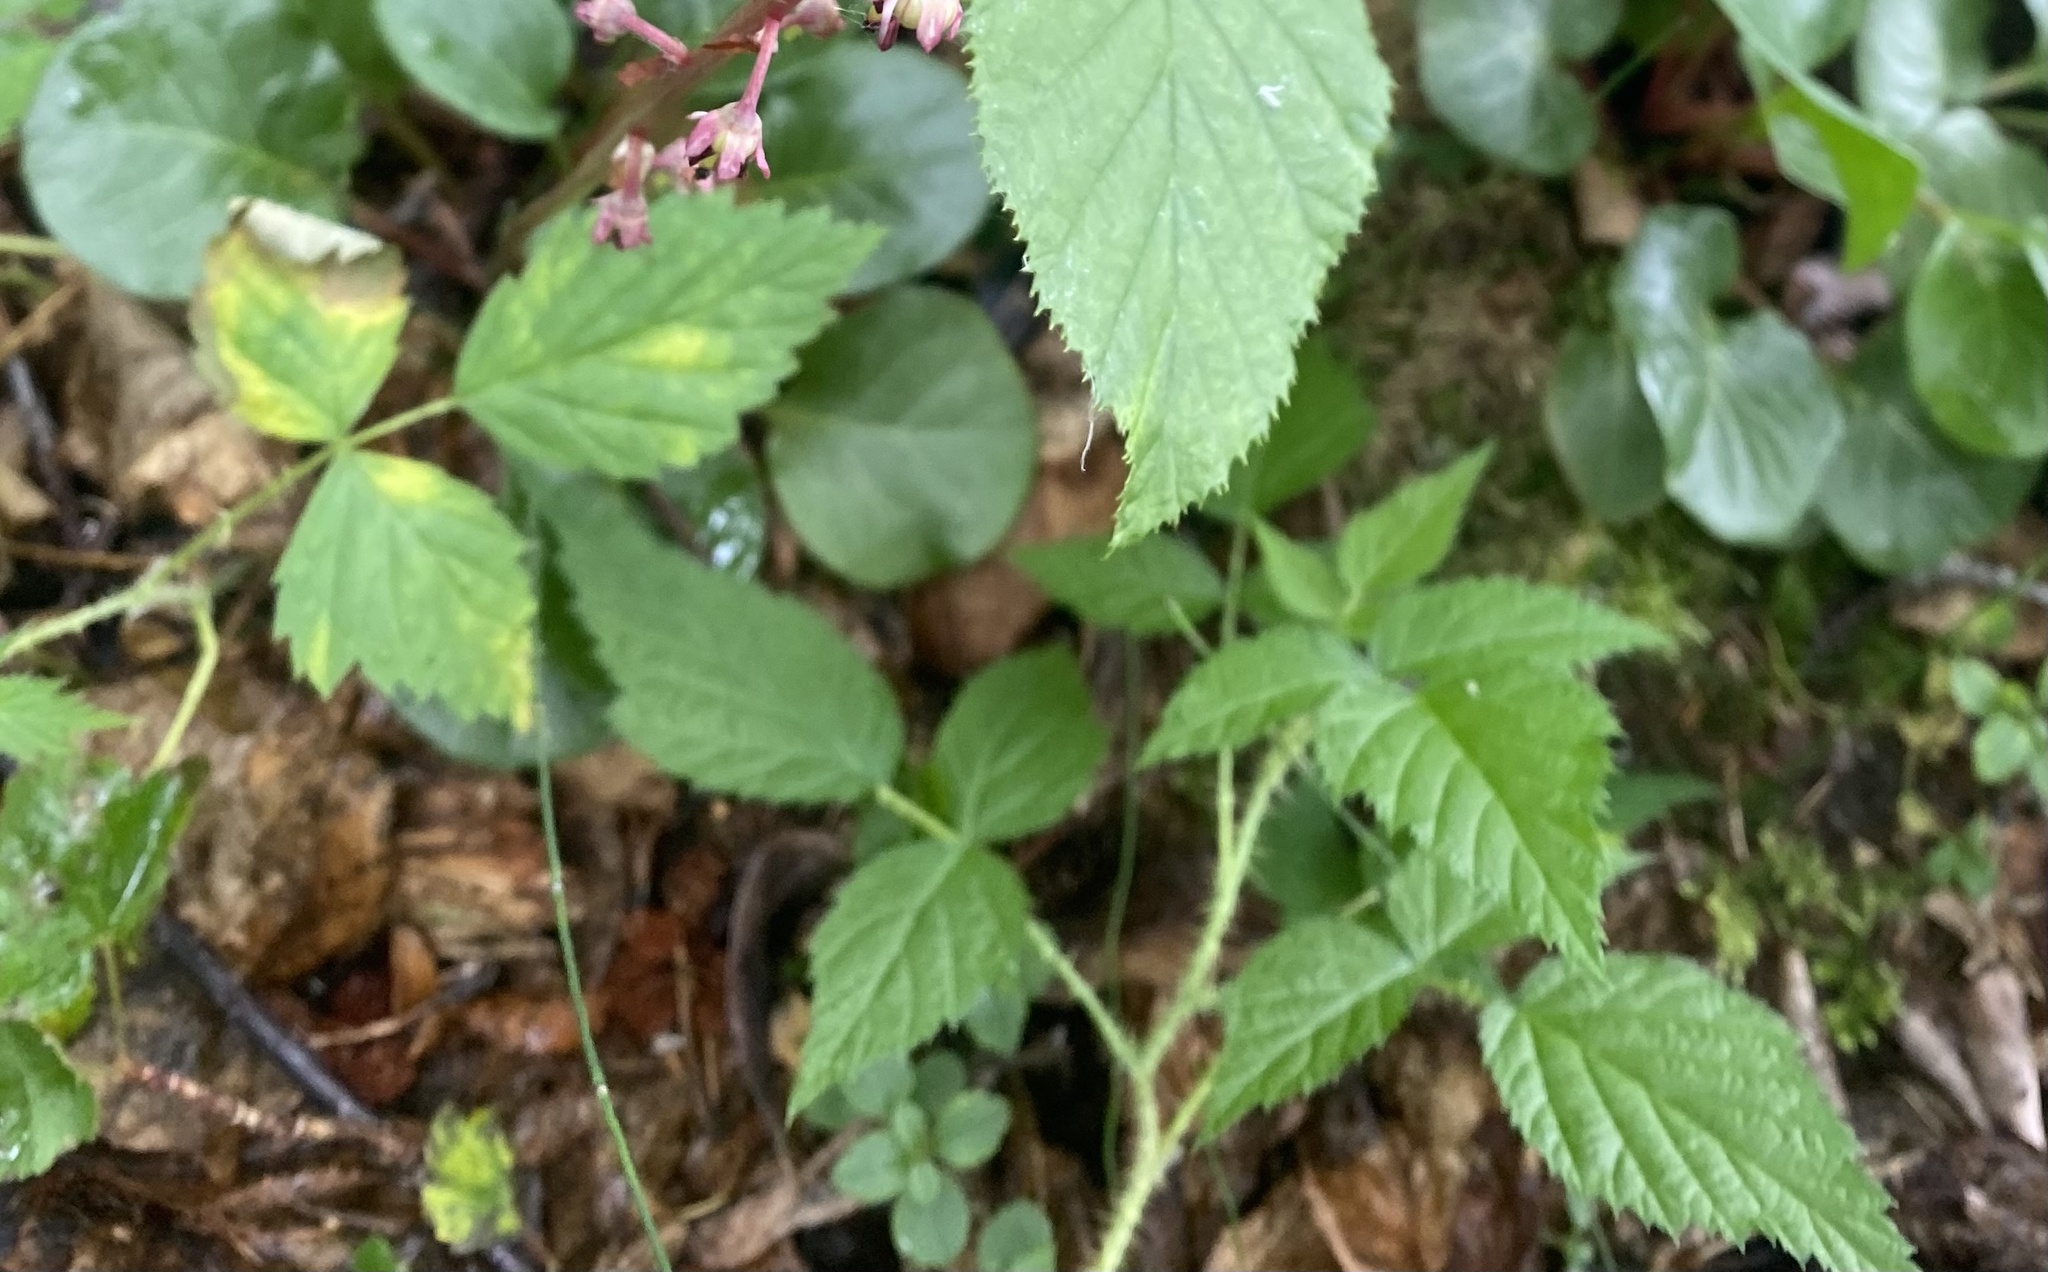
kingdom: Plantae
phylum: Tracheophyta
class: Magnoliopsida
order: Rosales
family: Rosaceae
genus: Rubus
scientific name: Rubus sachalinensis
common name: Red raspberry
